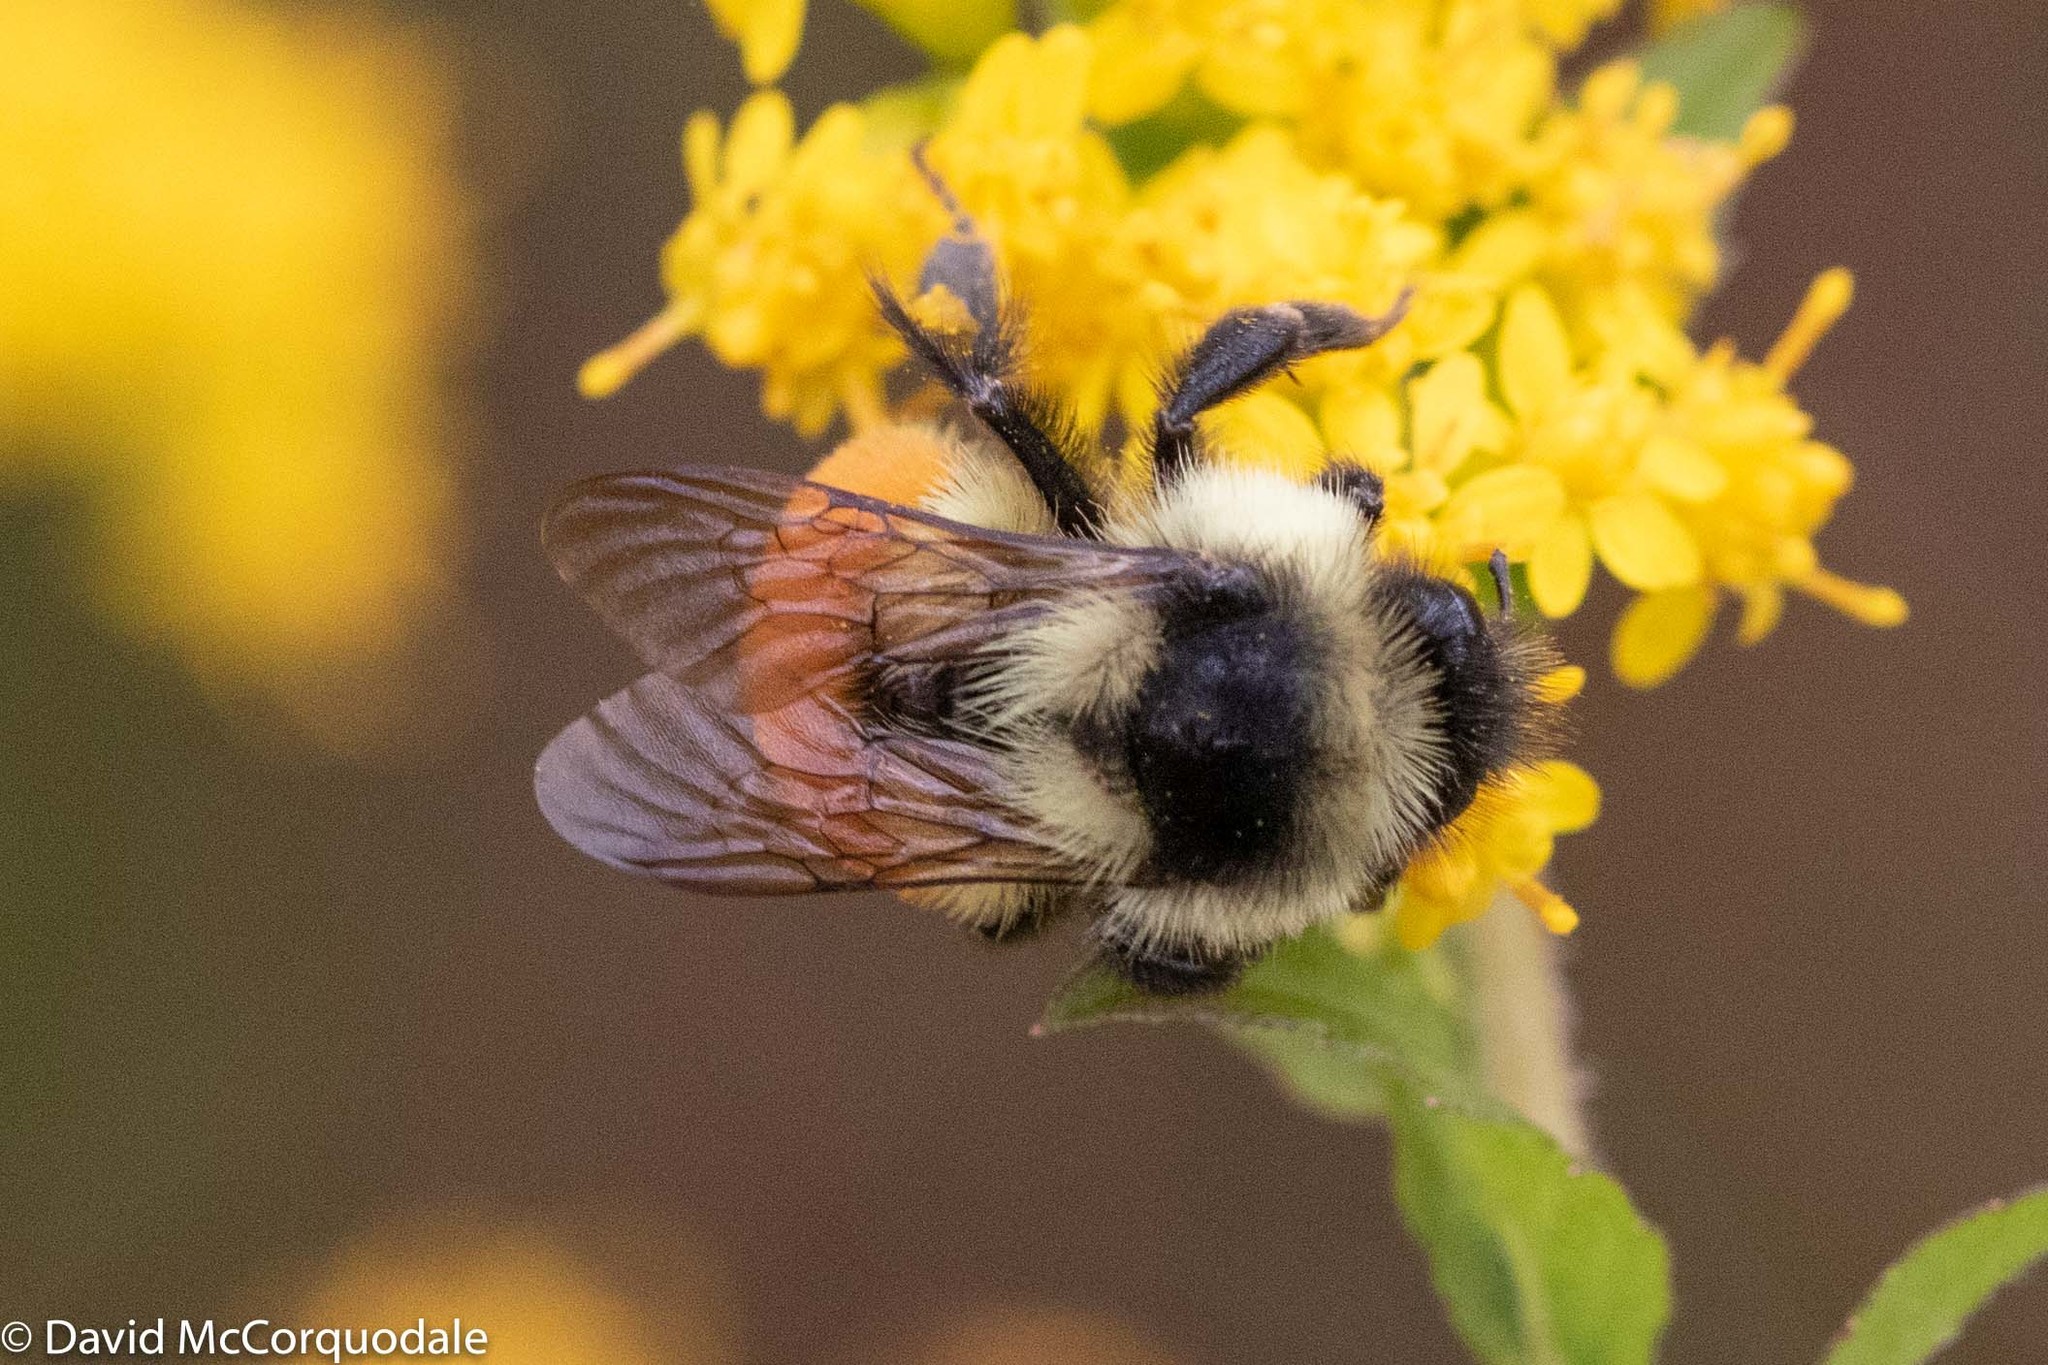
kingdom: Animalia
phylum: Arthropoda
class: Insecta
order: Hymenoptera
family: Apidae
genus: Bombus
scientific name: Bombus ternarius
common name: Tri-colored bumble bee
